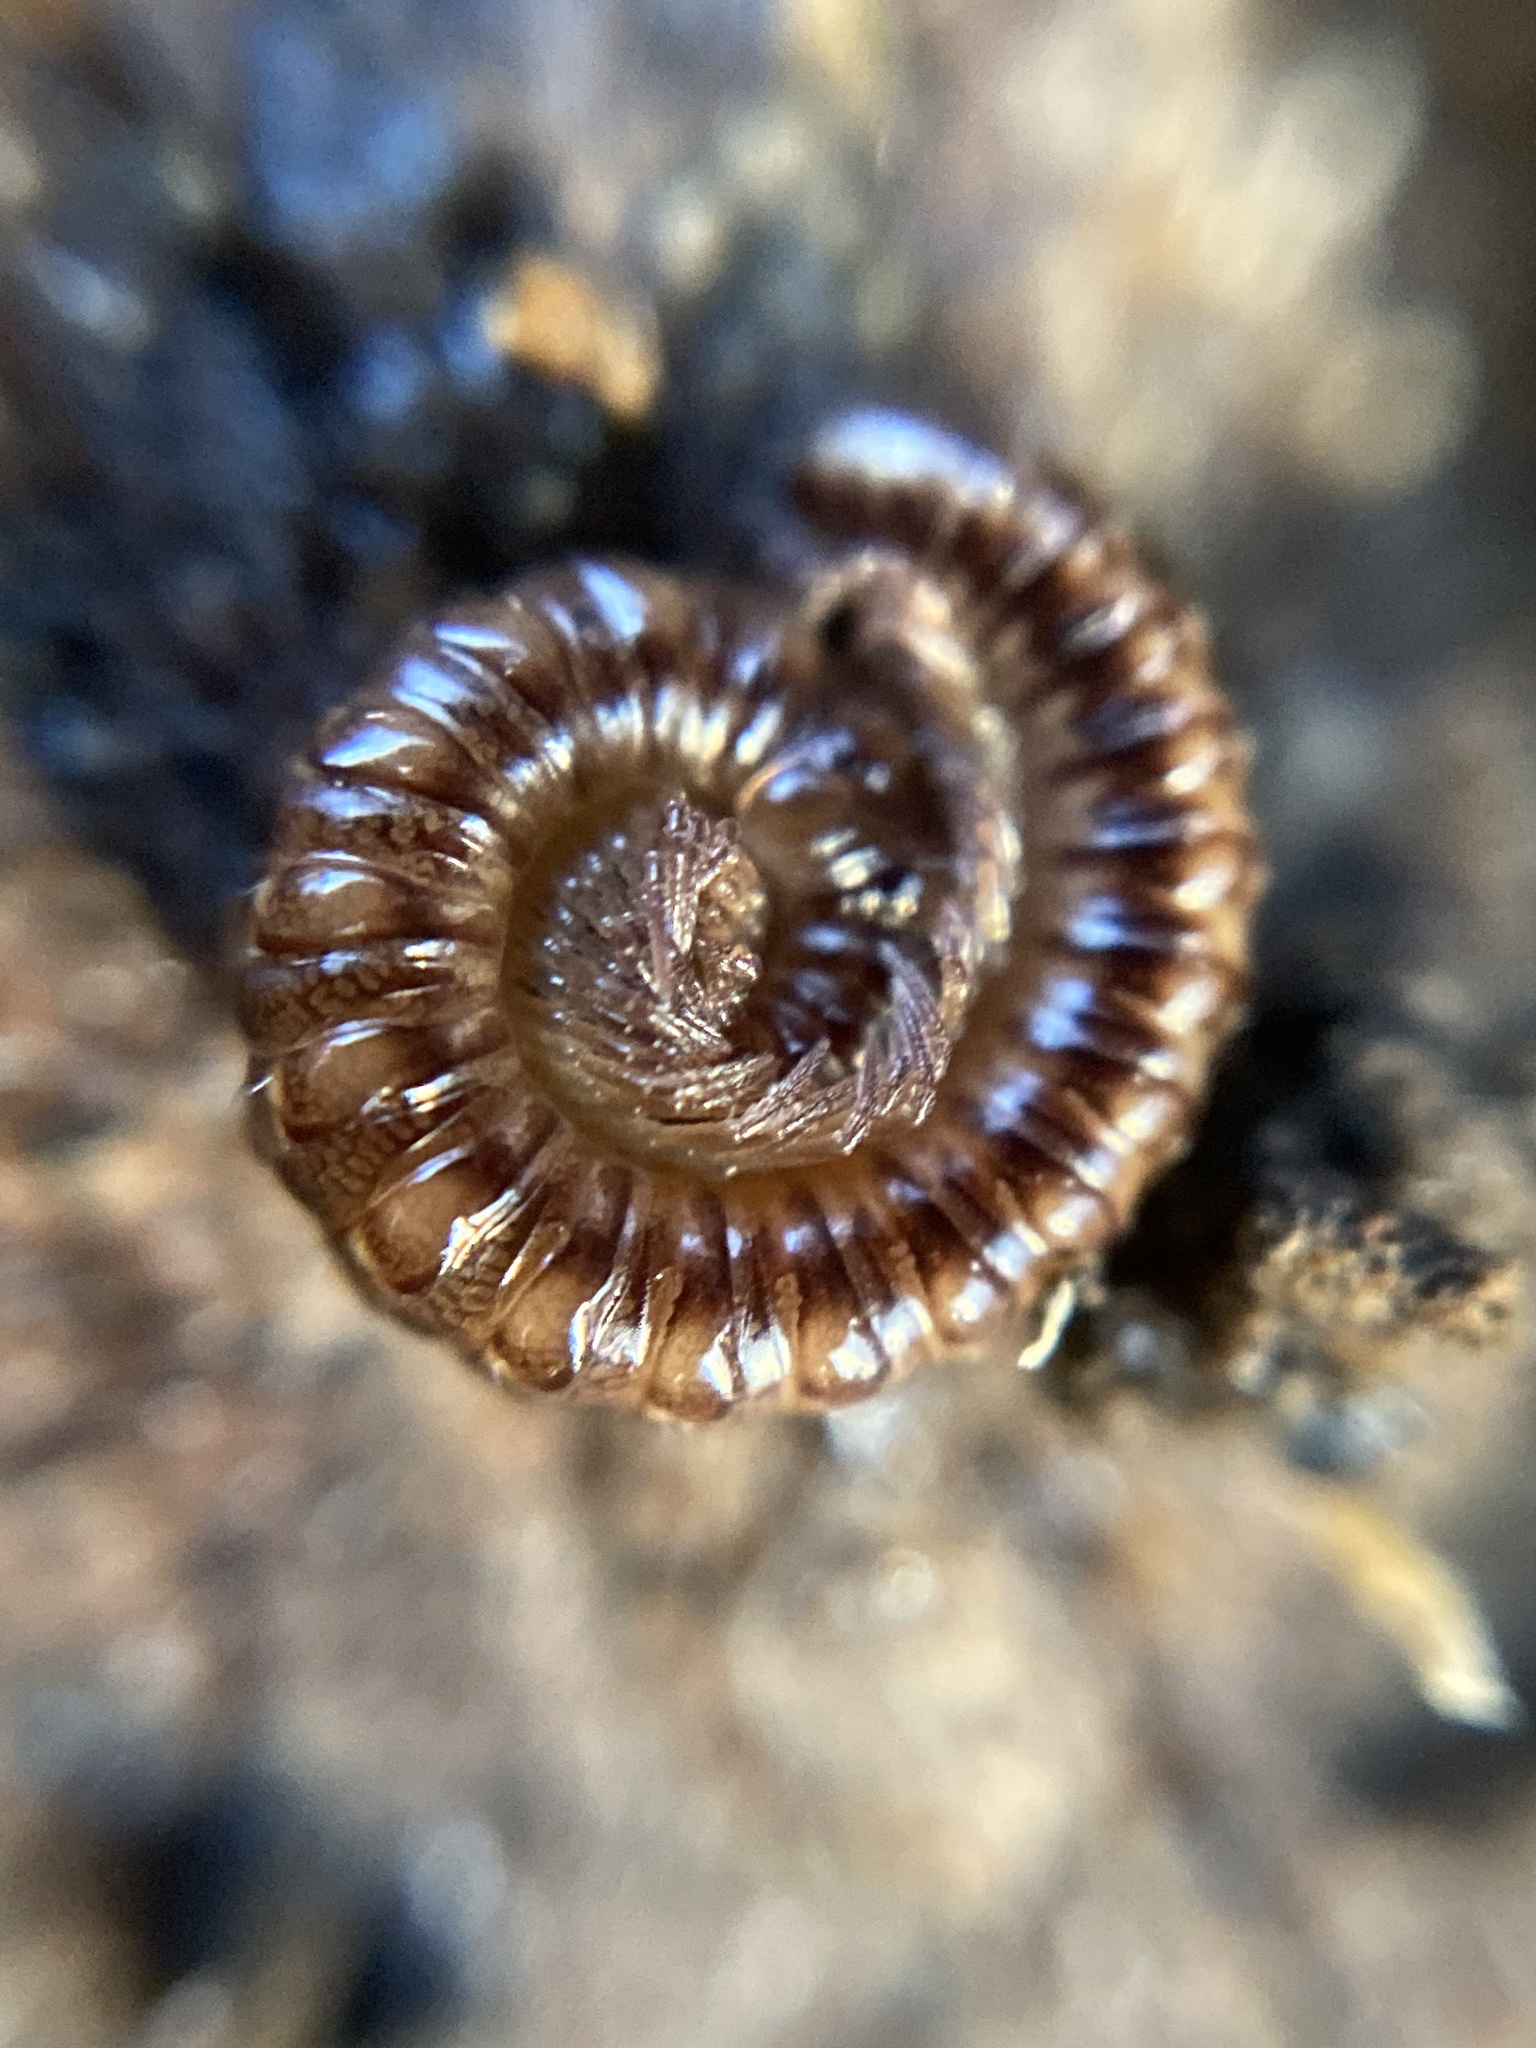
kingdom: Animalia
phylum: Arthropoda
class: Diplopoda
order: Chordeumatida
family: Craspedosomatidae
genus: Craspedosoma
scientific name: Craspedosoma rawlinsii
